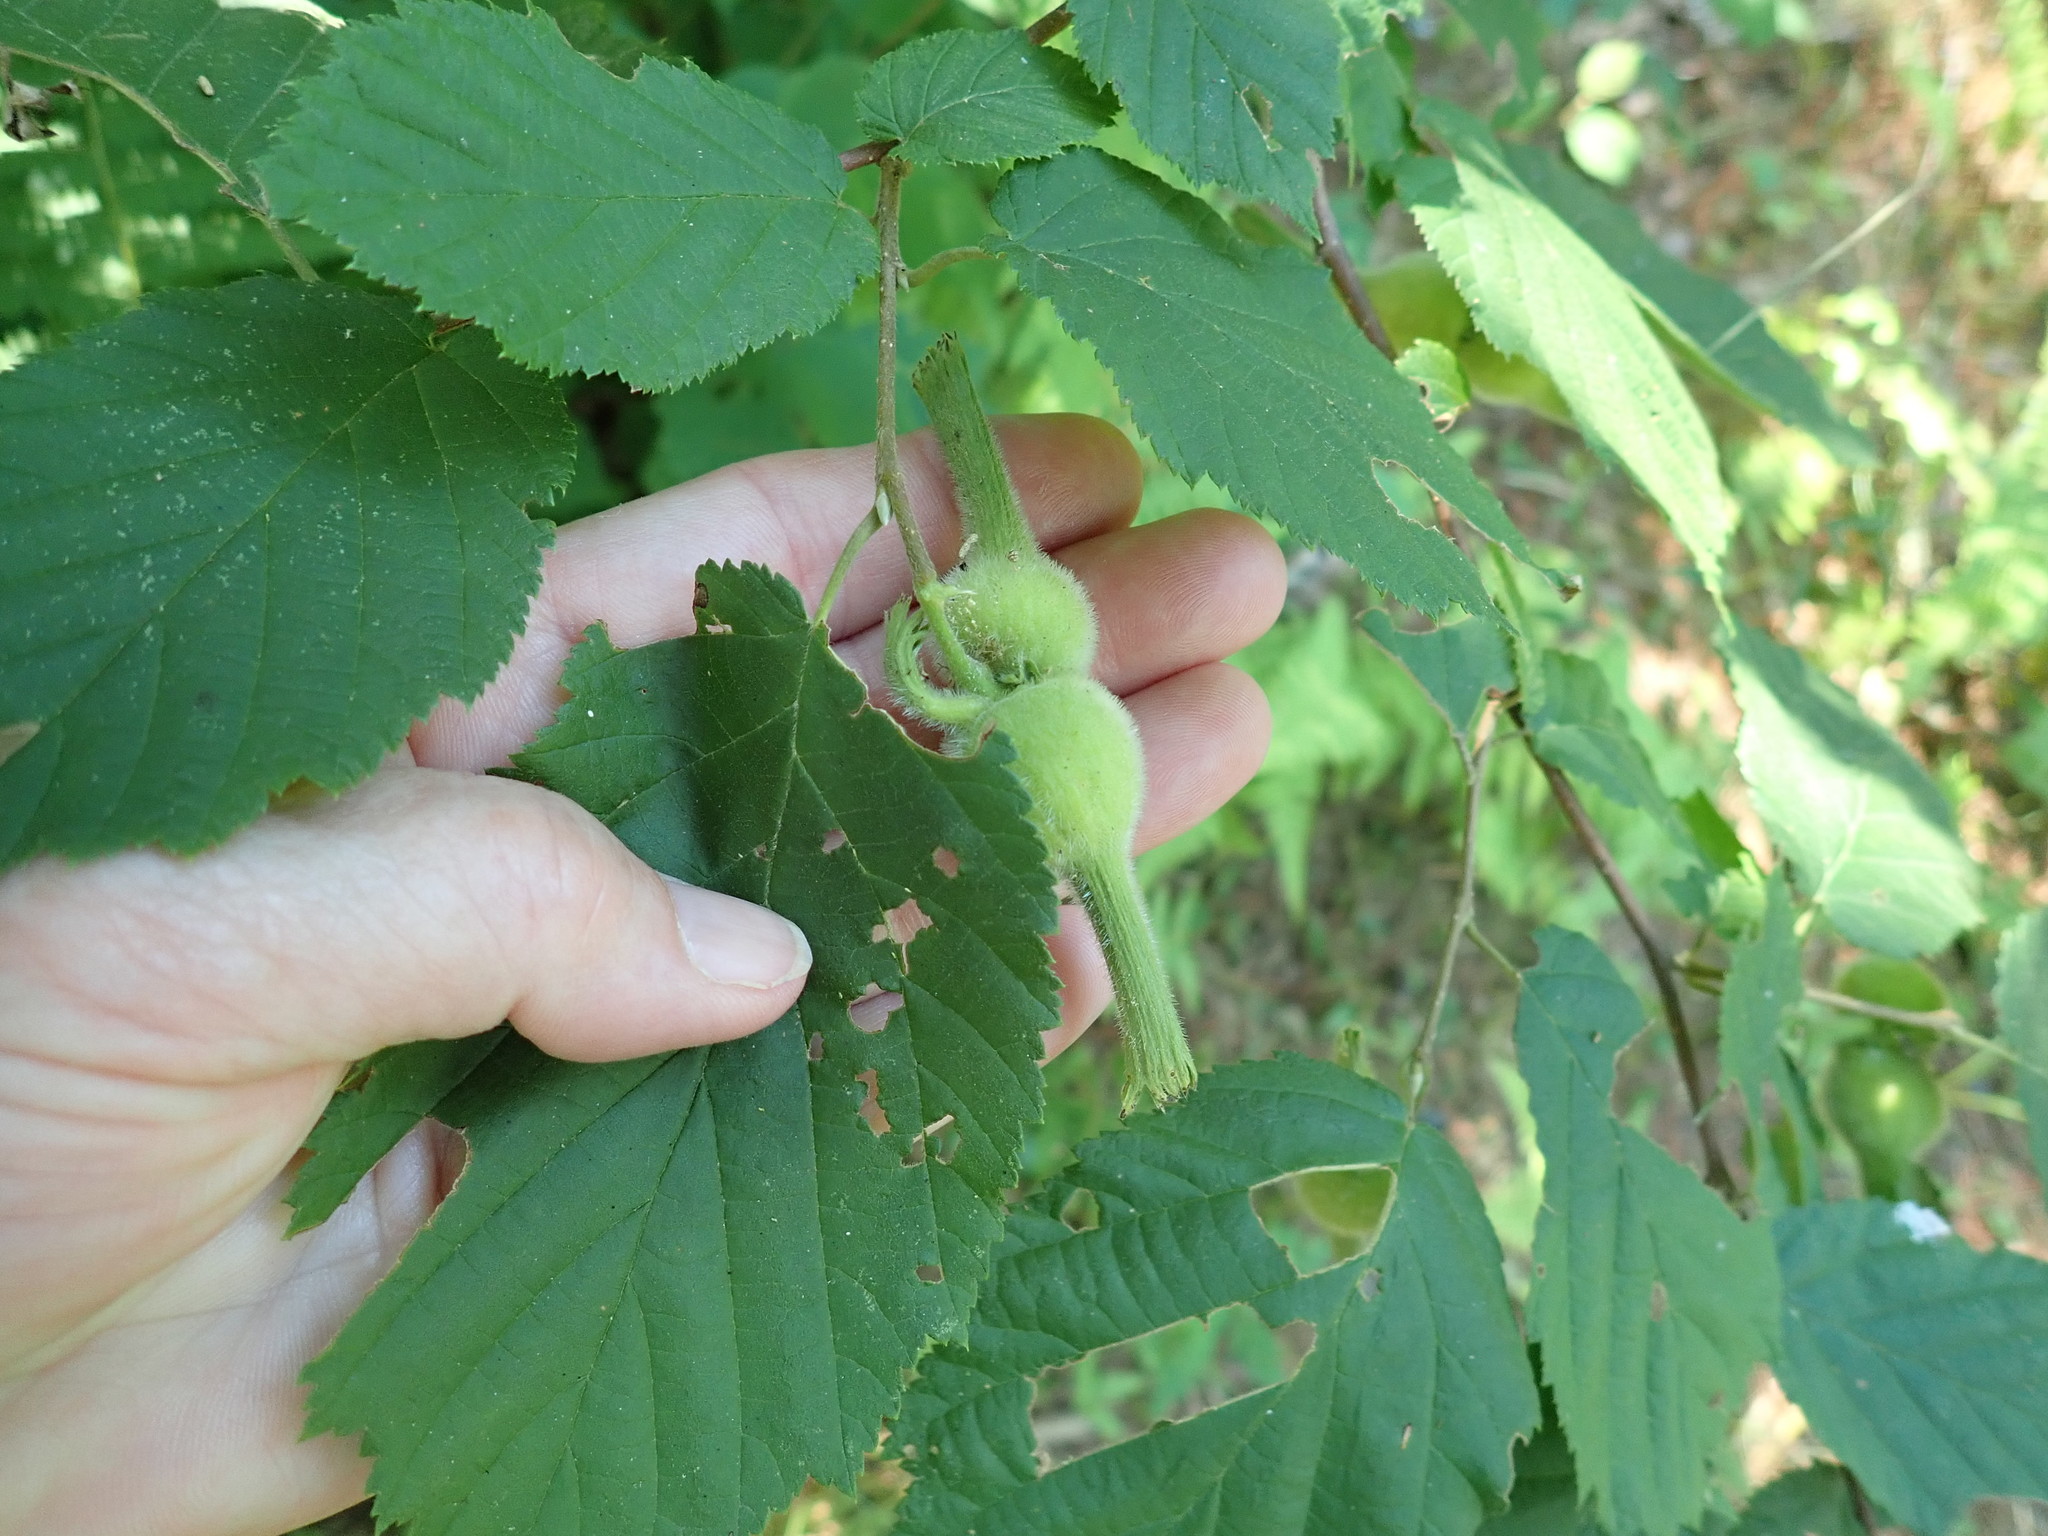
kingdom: Plantae
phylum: Tracheophyta
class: Magnoliopsida
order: Fagales
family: Betulaceae
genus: Corylus
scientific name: Corylus cornuta
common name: Beaked hazel
